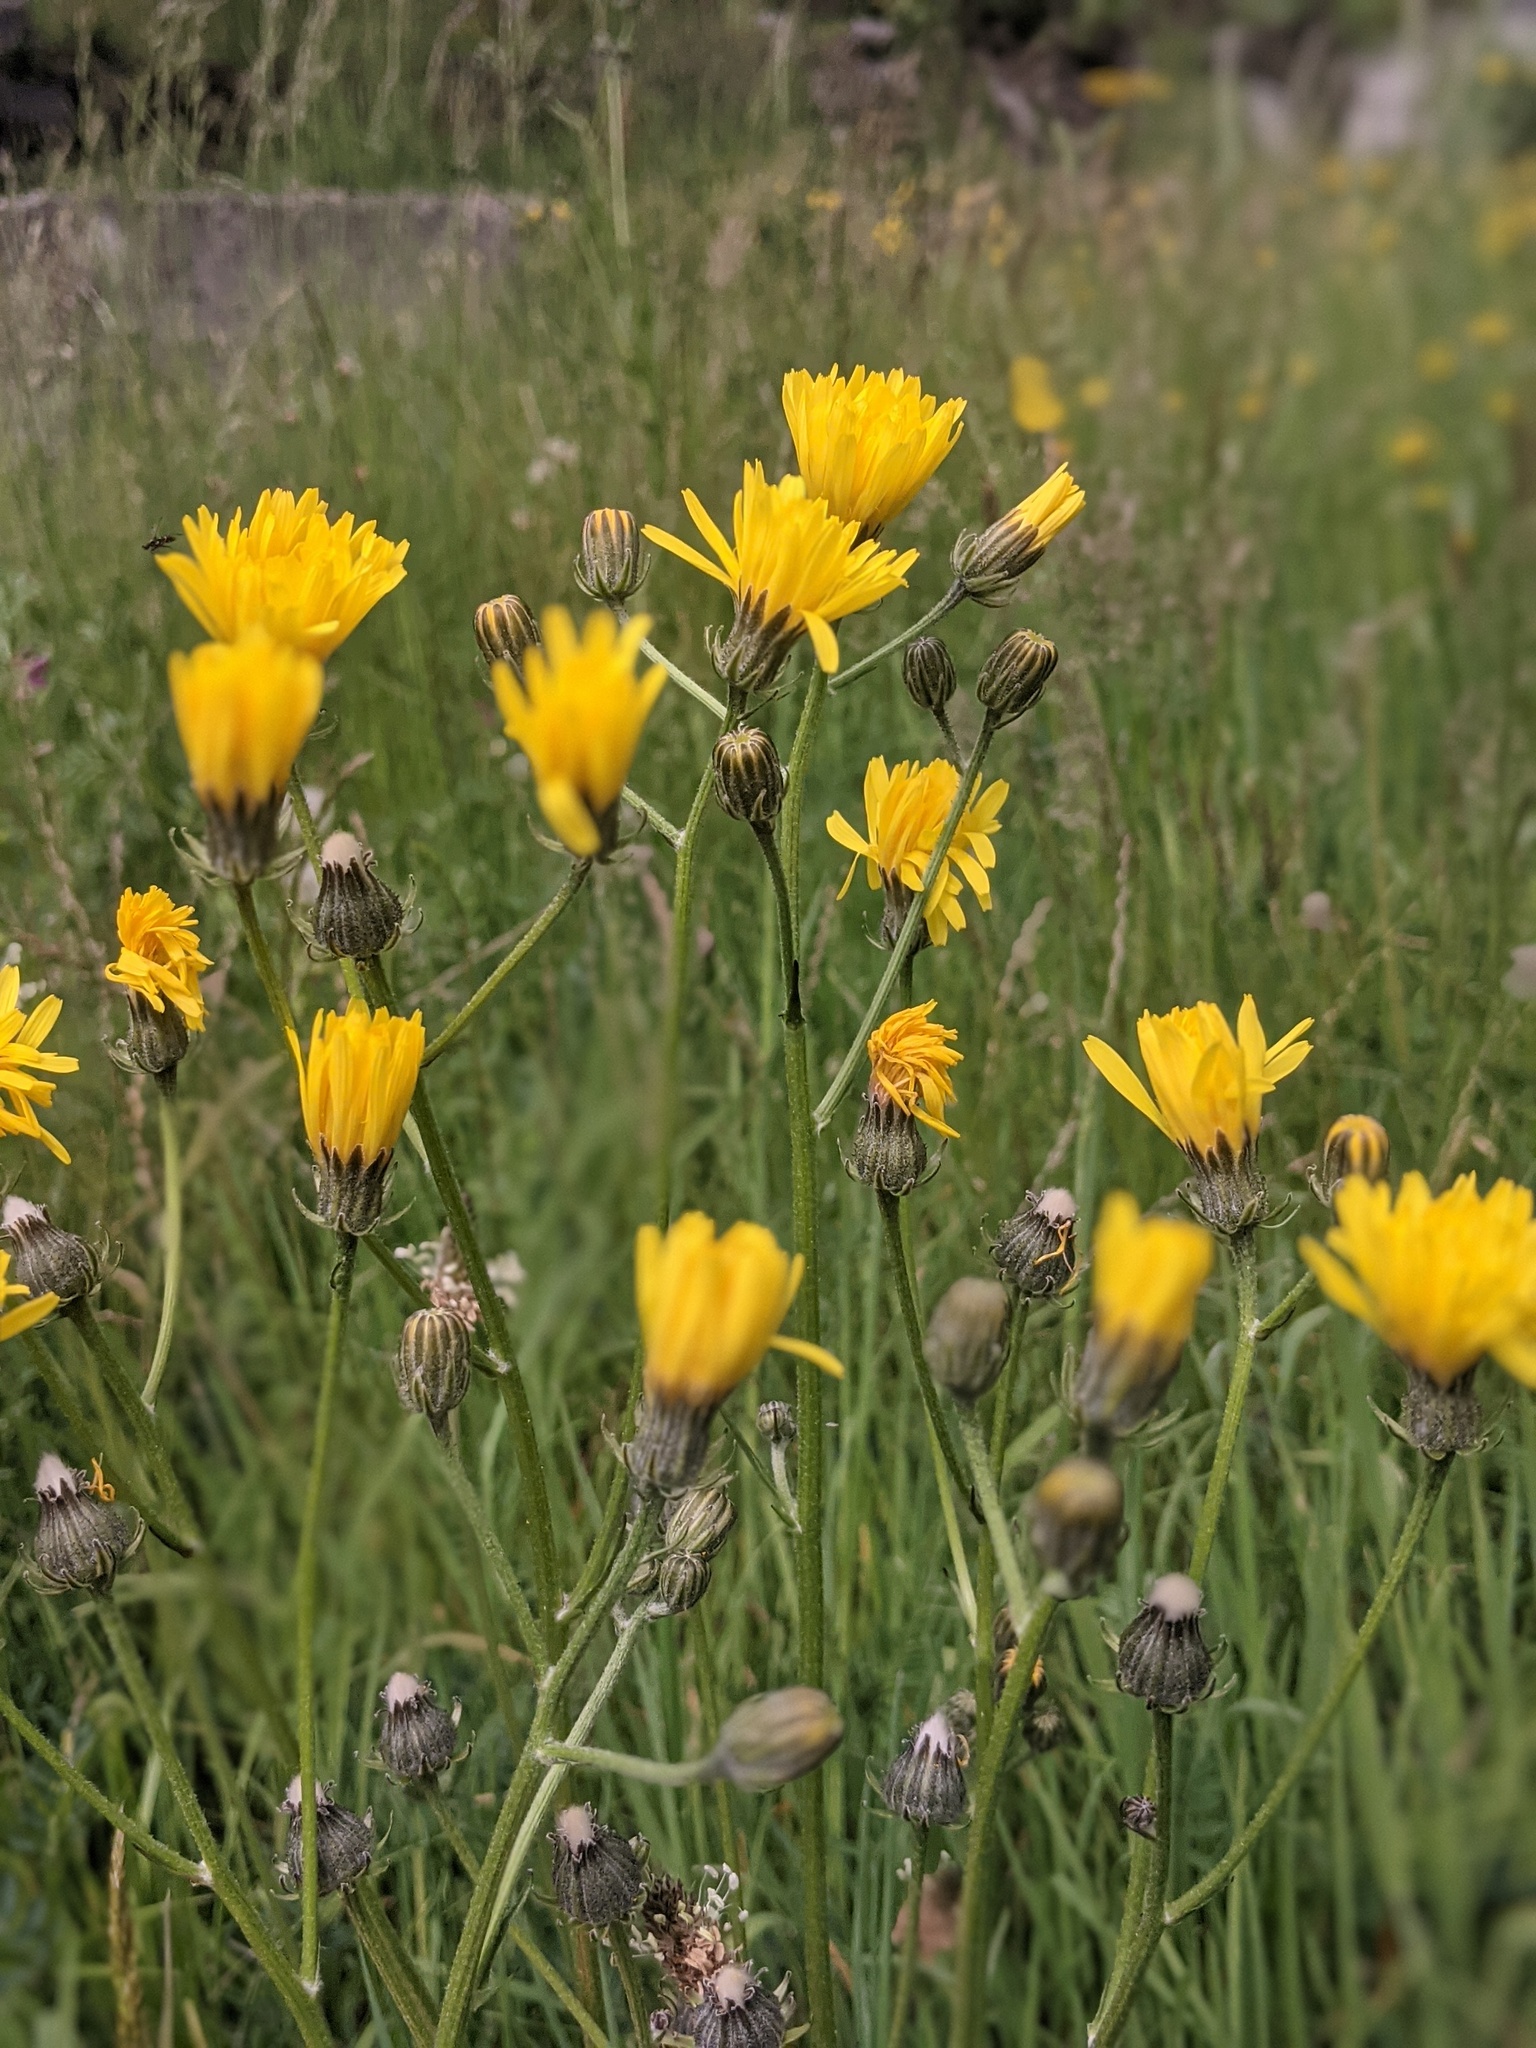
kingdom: Plantae
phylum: Tracheophyta
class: Magnoliopsida
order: Asterales
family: Asteraceae
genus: Crepis
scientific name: Crepis biennis
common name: Rough hawk's-beard
